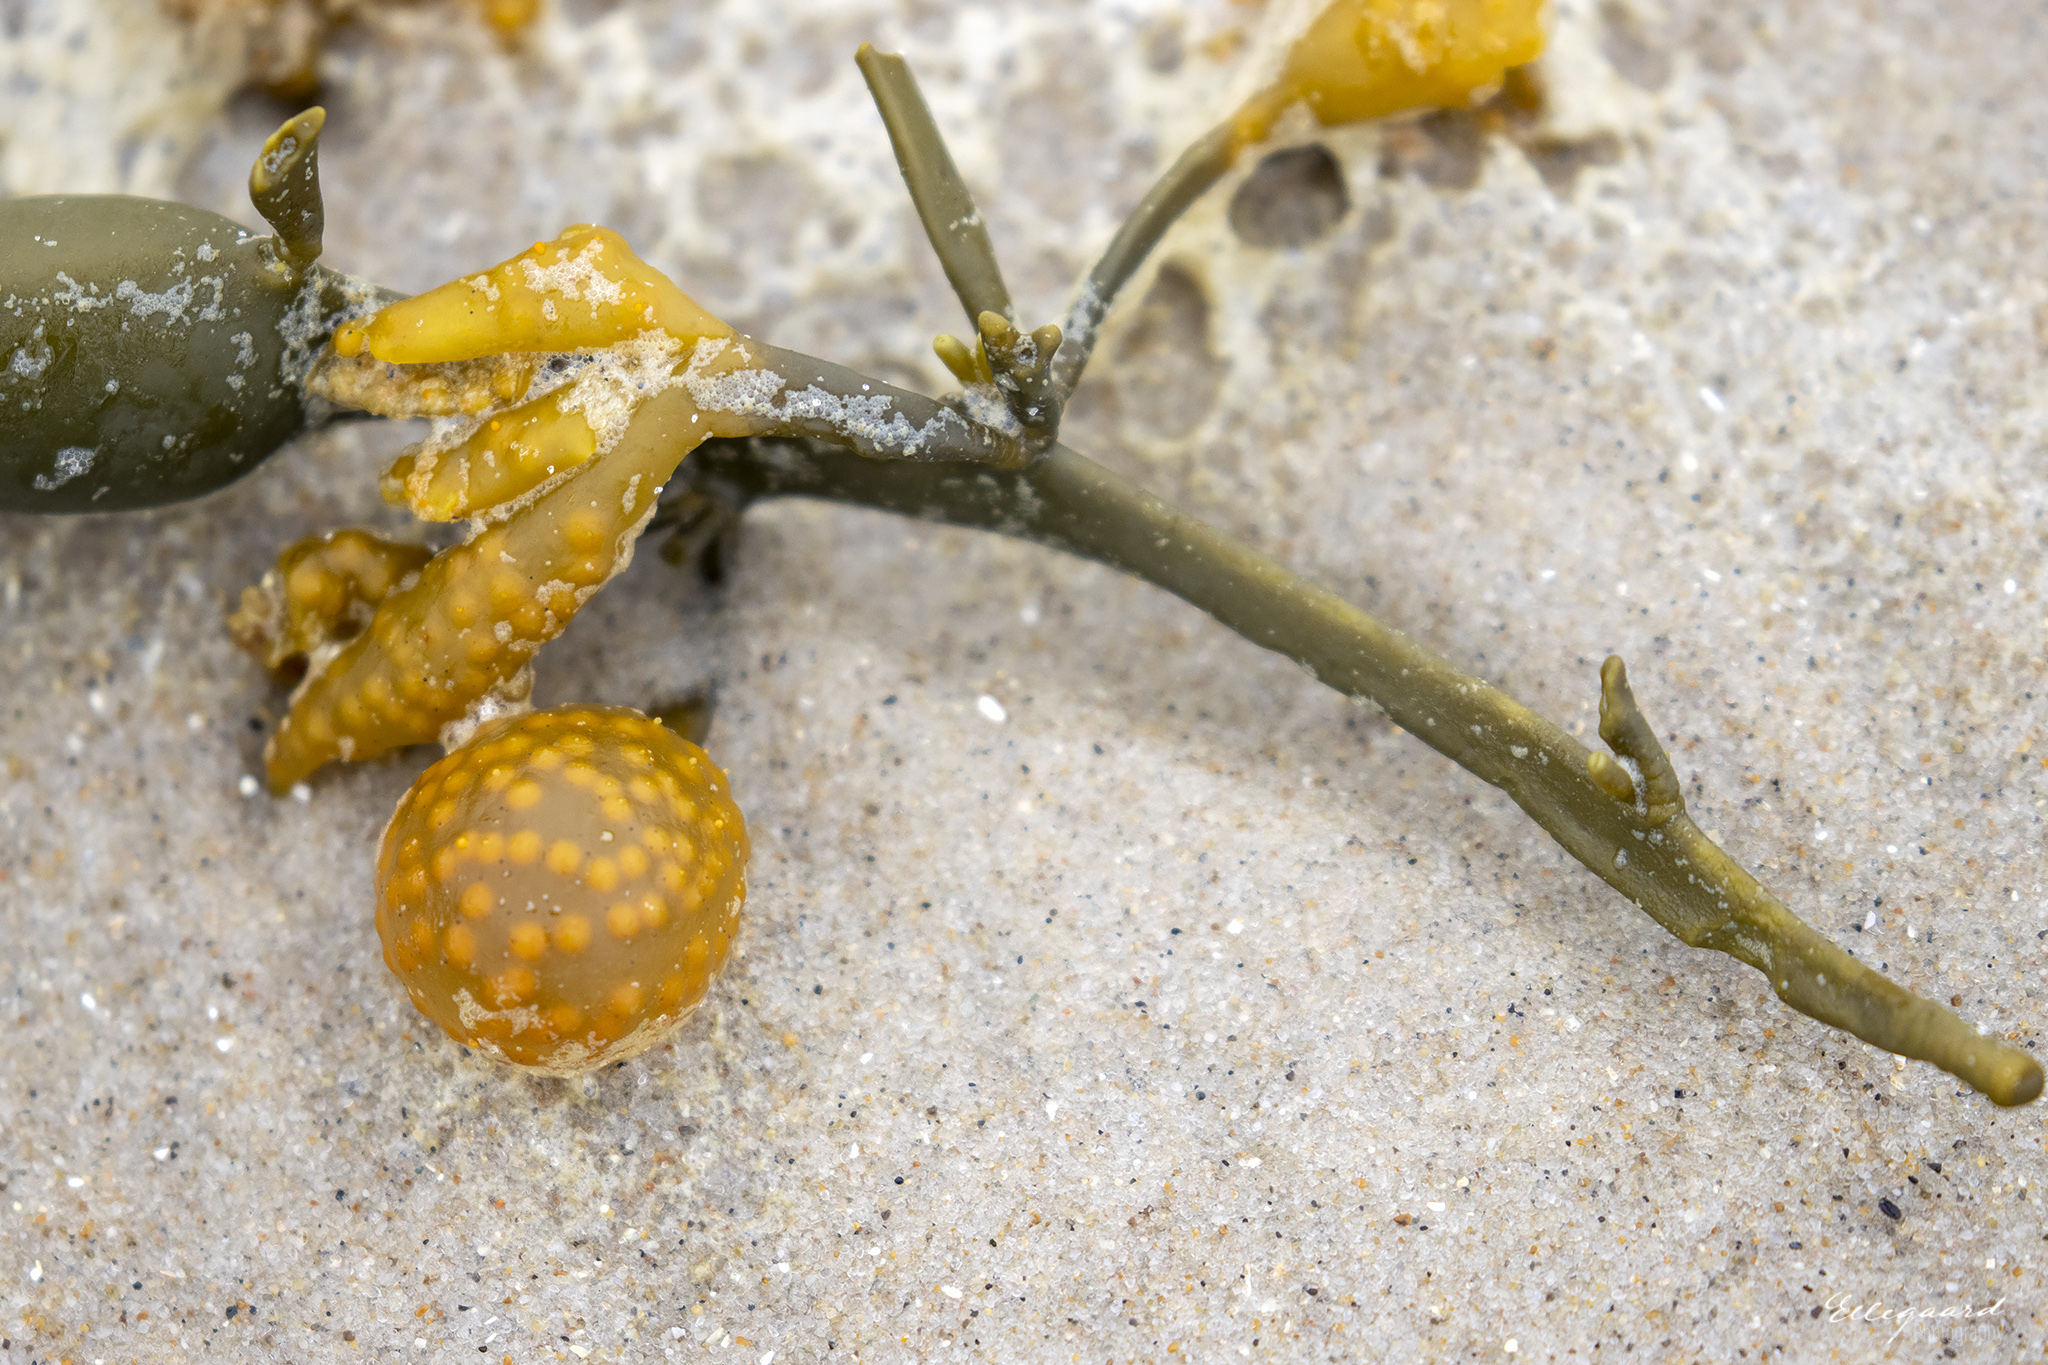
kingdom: Chromista
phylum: Ochrophyta
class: Phaeophyceae
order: Fucales
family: Fucaceae
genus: Ascophyllum
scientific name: Ascophyllum nodosum
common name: Knotted wrack
